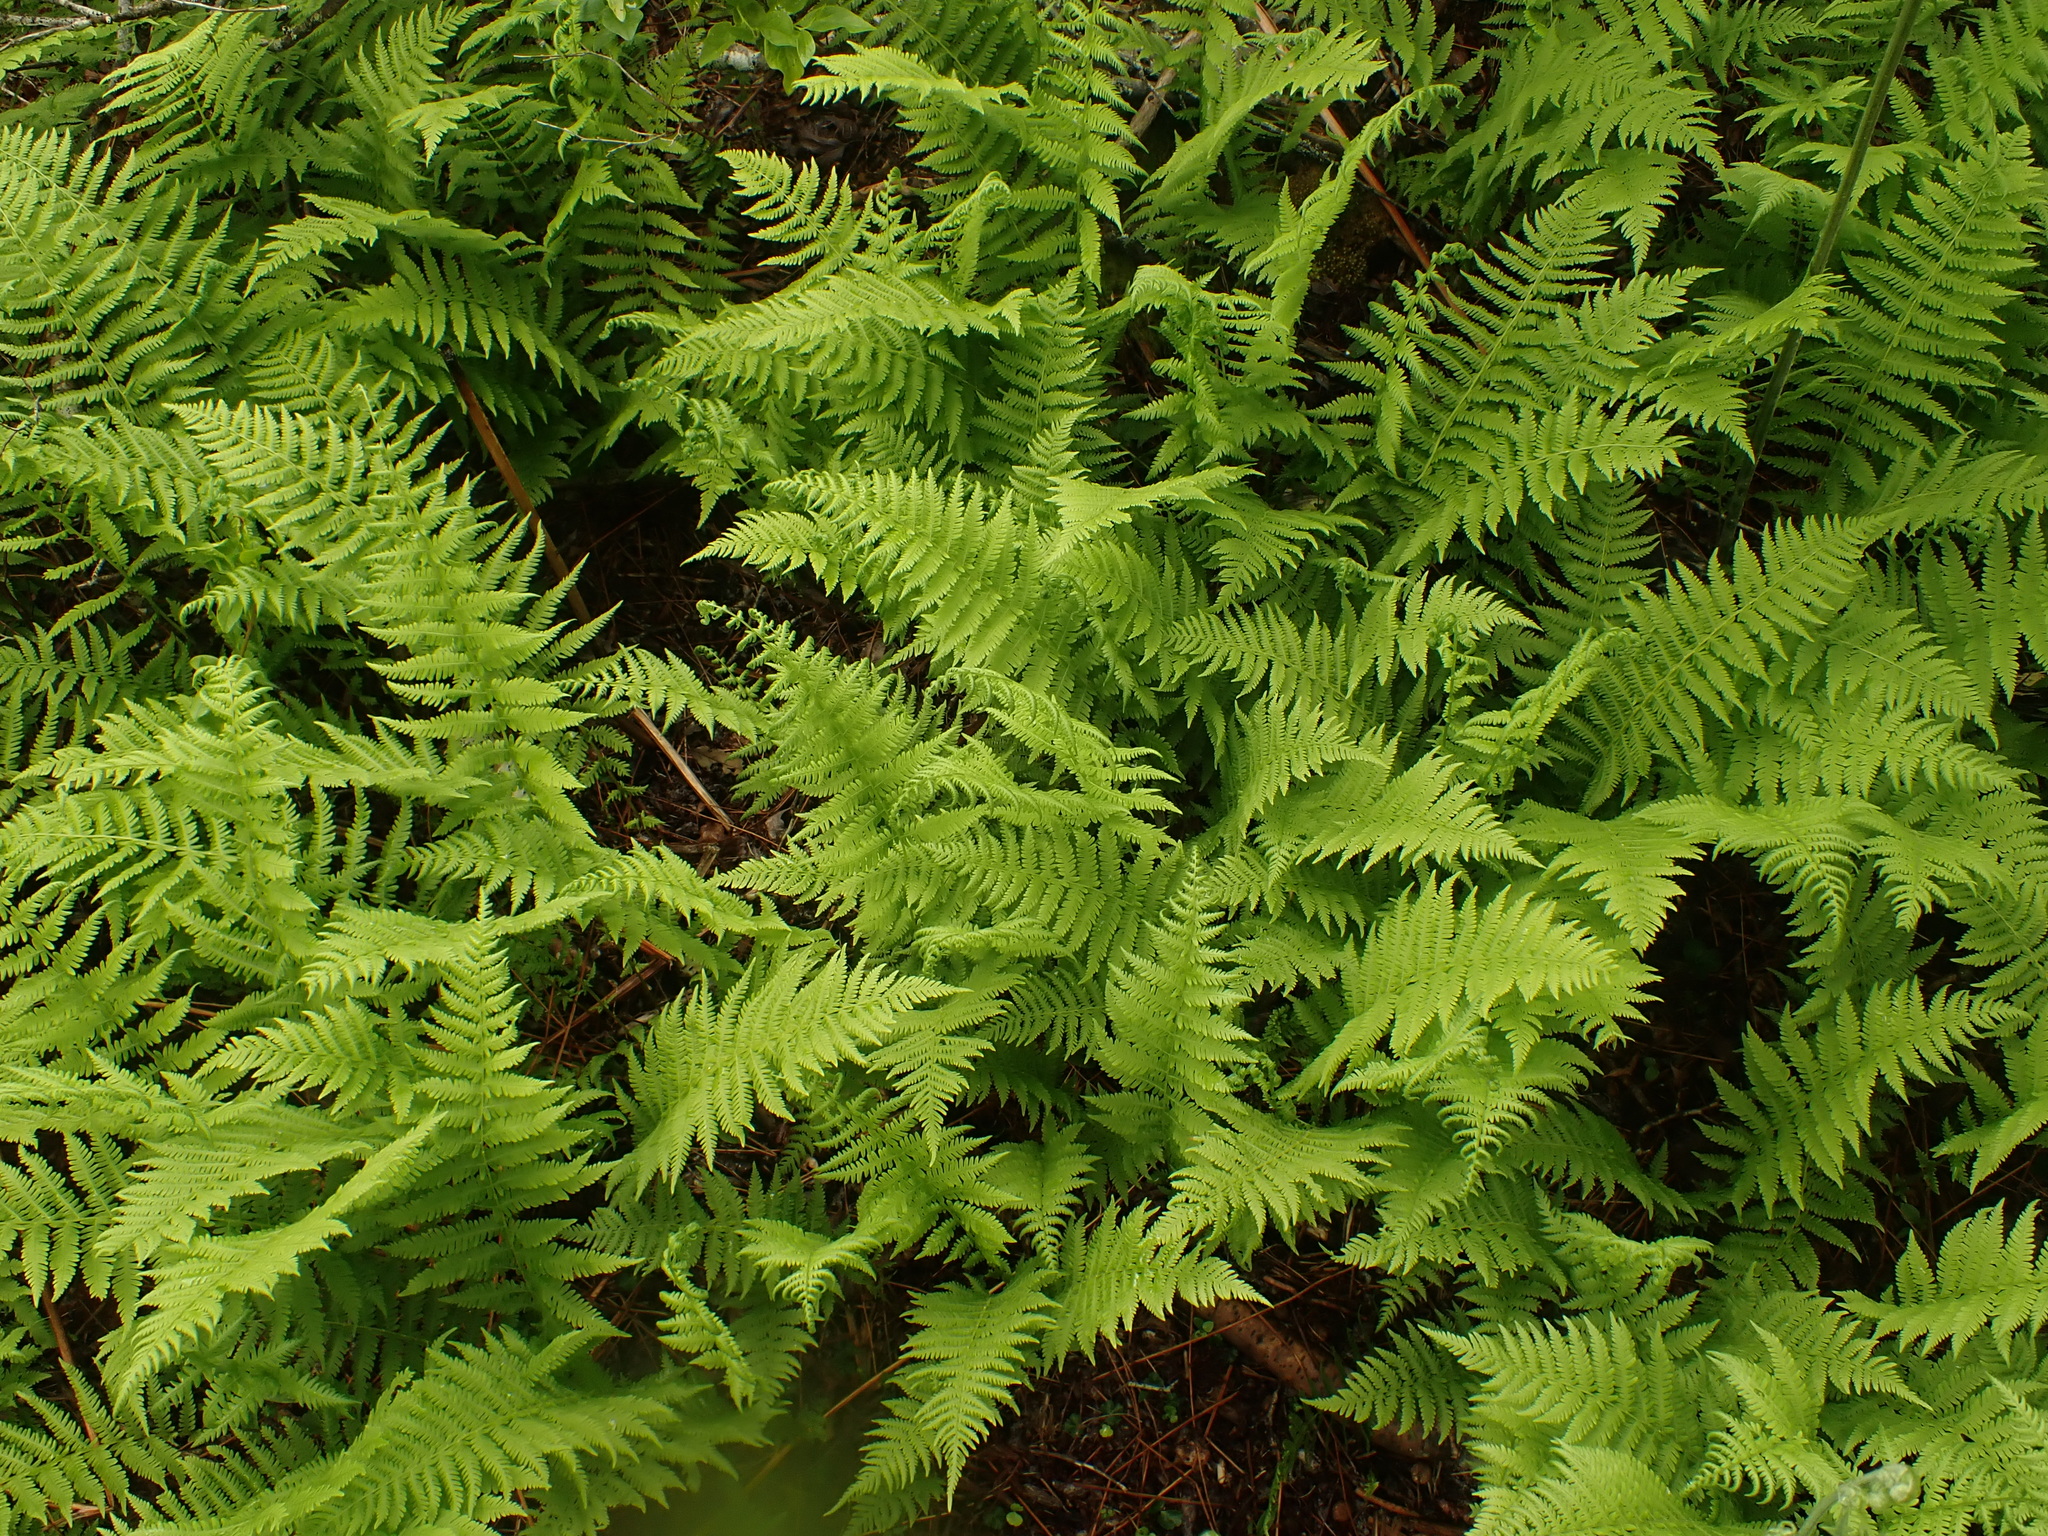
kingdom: Plantae
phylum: Tracheophyta
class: Polypodiopsida
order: Polypodiales
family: Thelypteridaceae
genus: Amauropelta
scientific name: Amauropelta noveboracensis
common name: New york fern
